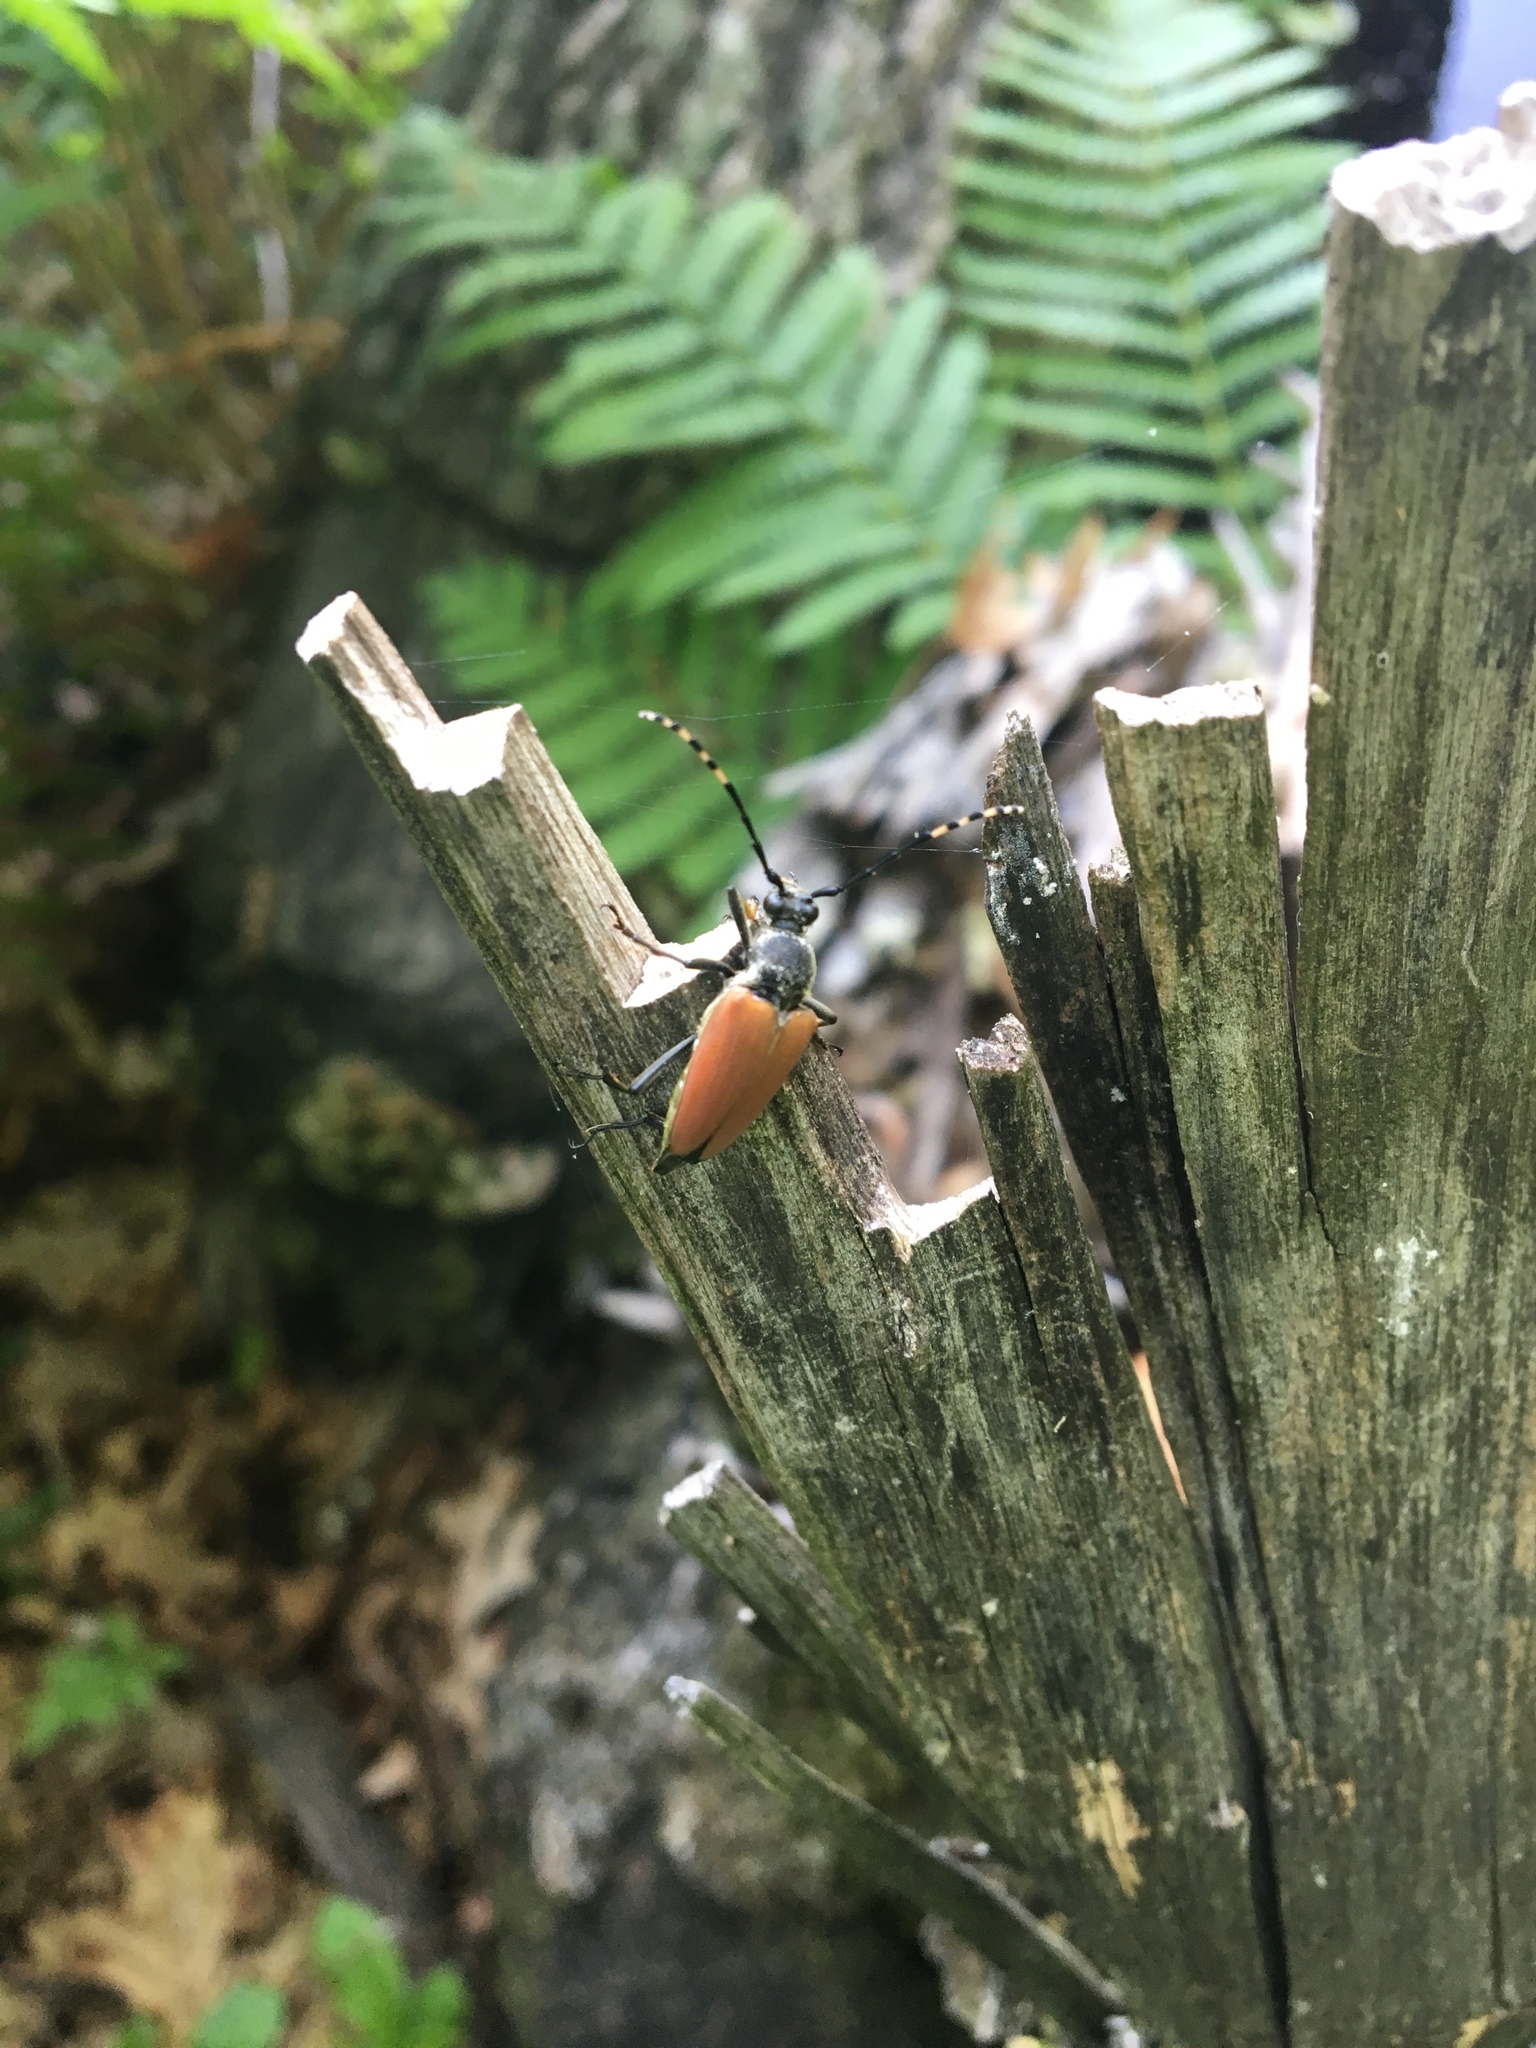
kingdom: Animalia
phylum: Arthropoda
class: Insecta
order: Coleoptera
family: Cerambycidae
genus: Stictoleptura
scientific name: Stictoleptura canadensis
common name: Red-shouldered pine borer
